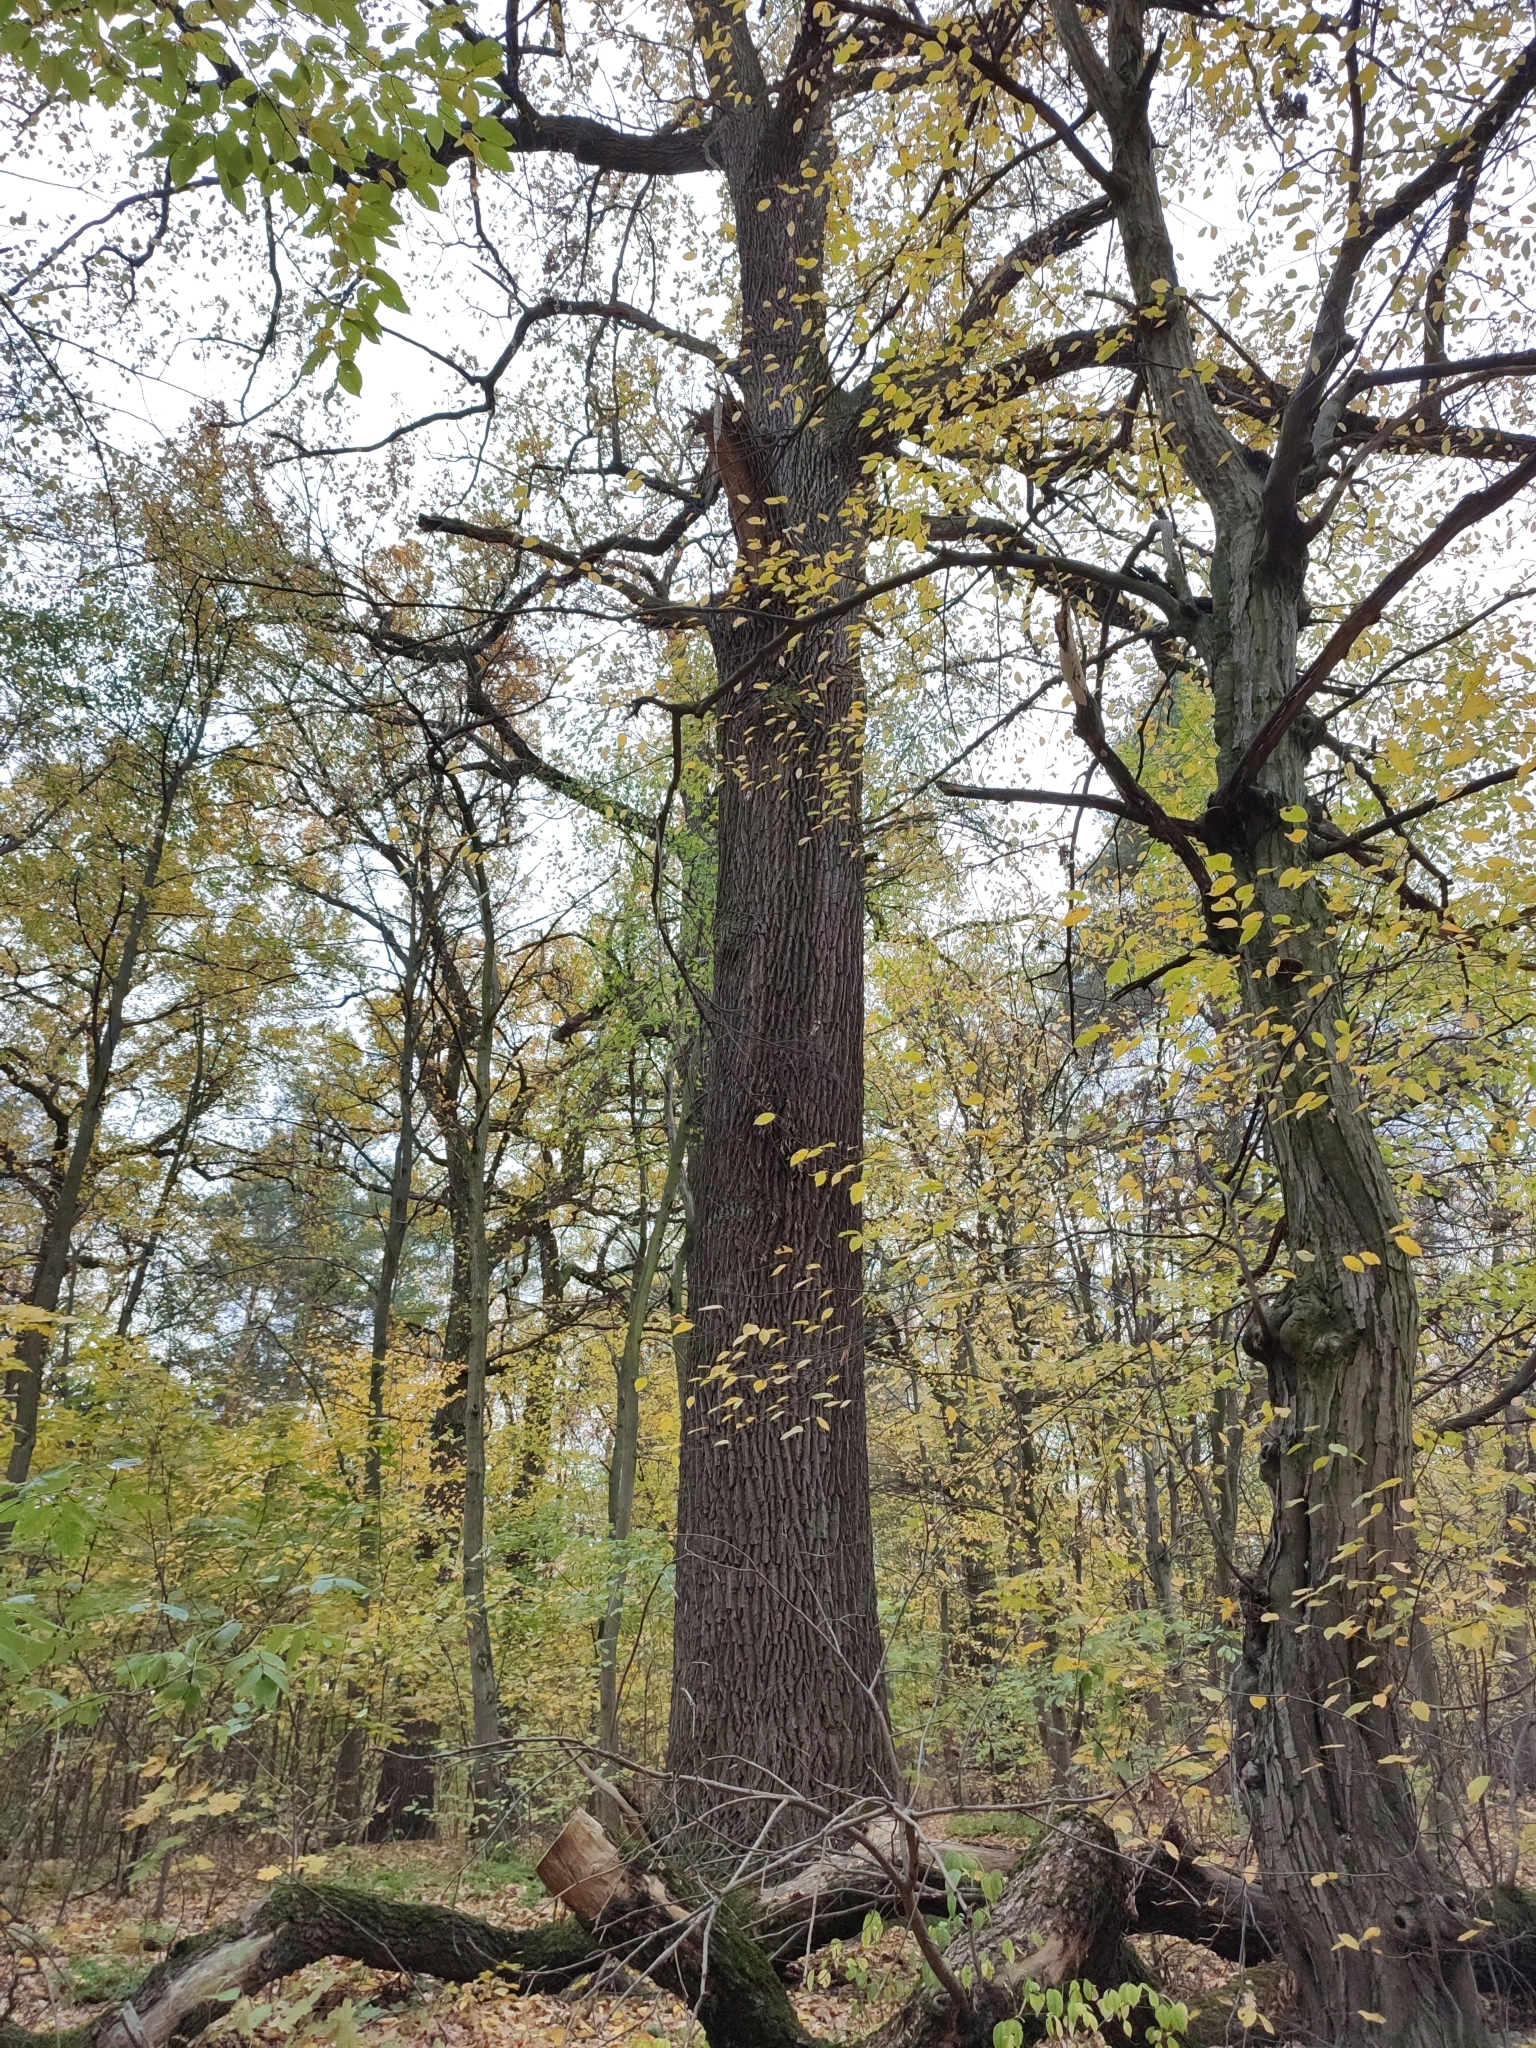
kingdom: Plantae
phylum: Tracheophyta
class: Magnoliopsida
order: Fagales
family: Fagaceae
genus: Quercus
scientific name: Quercus robur
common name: Pedunculate oak
